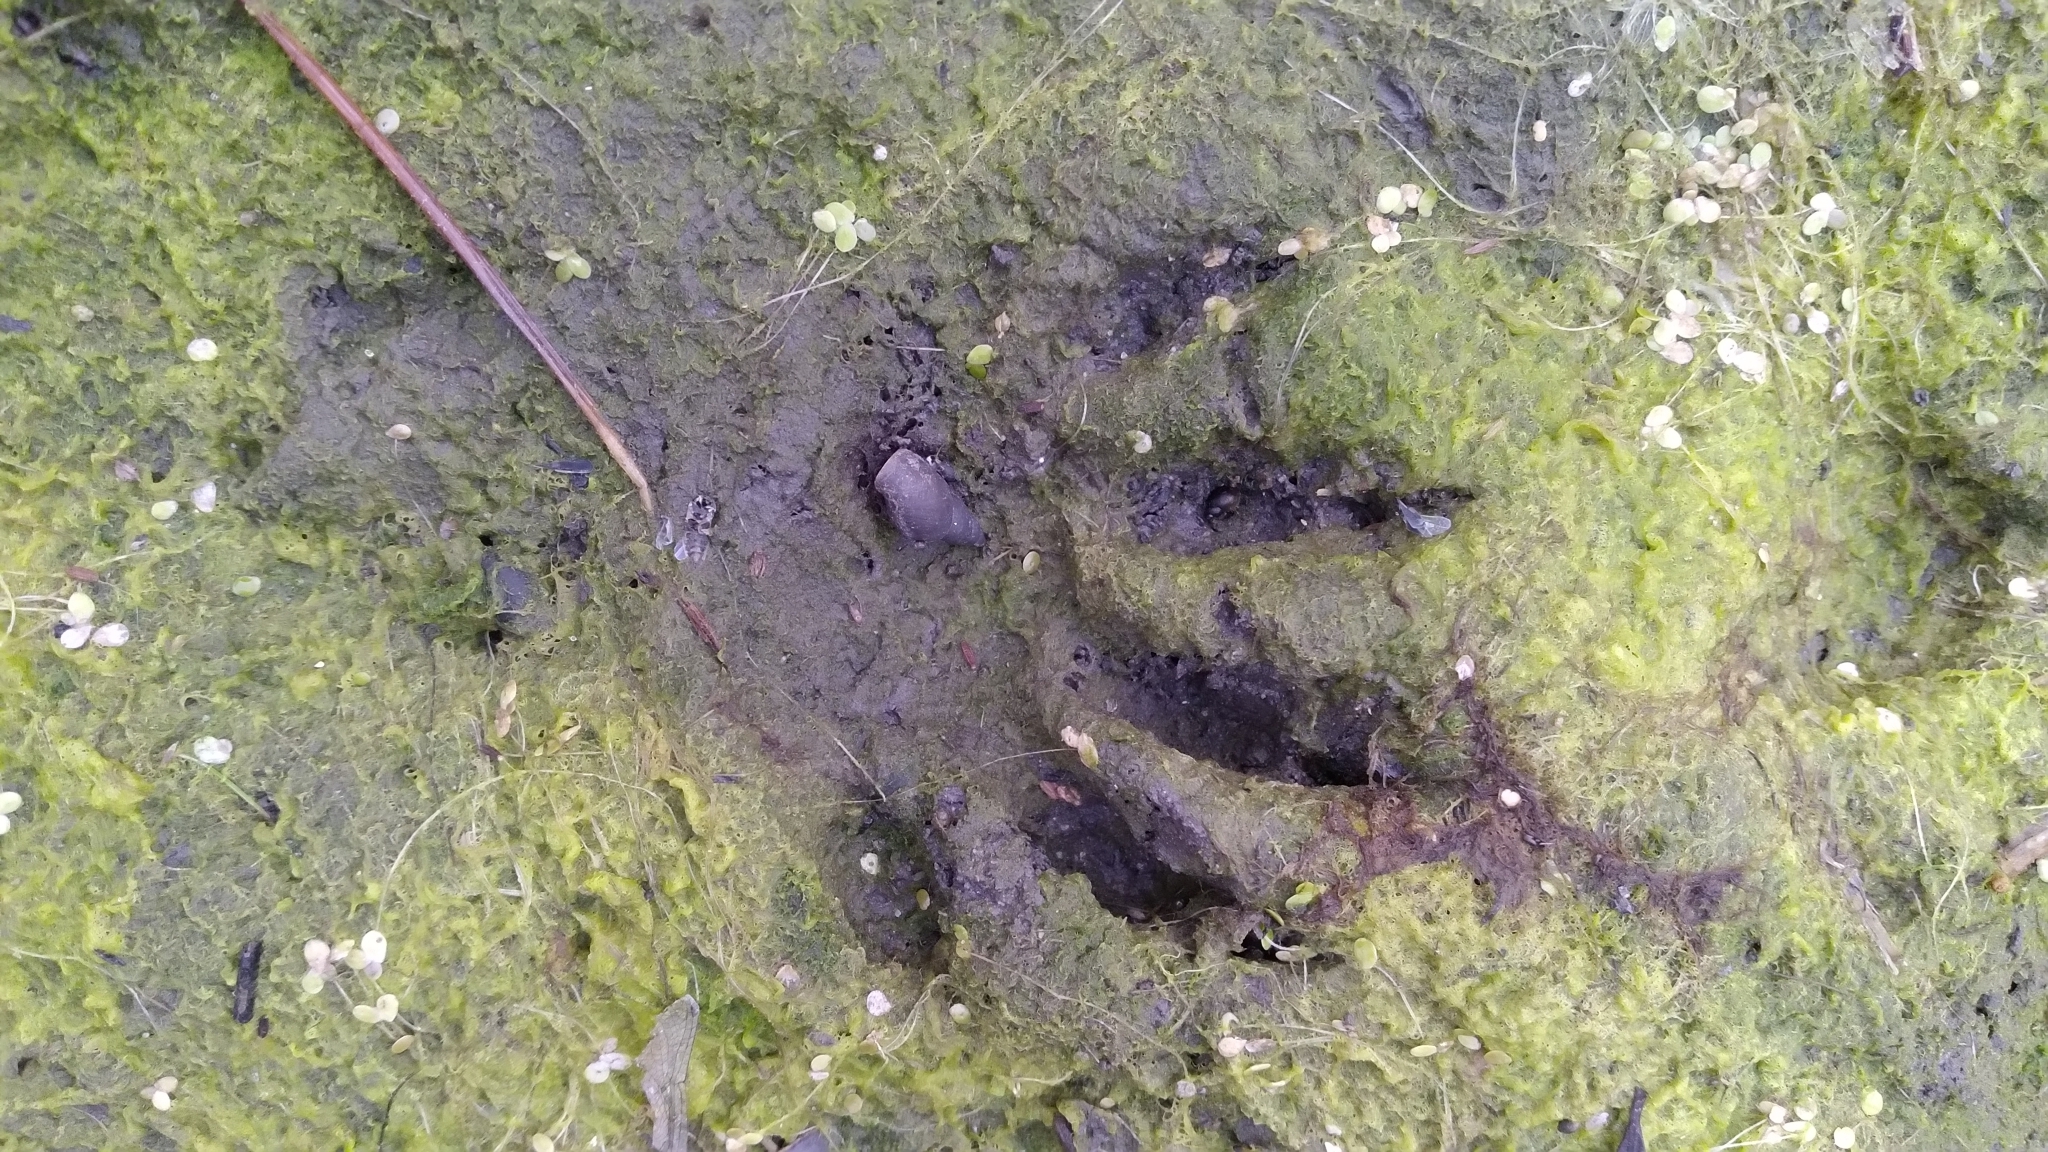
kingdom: Animalia
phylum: Chordata
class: Mammalia
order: Carnivora
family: Procyonidae
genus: Procyon
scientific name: Procyon lotor
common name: Raccoon
